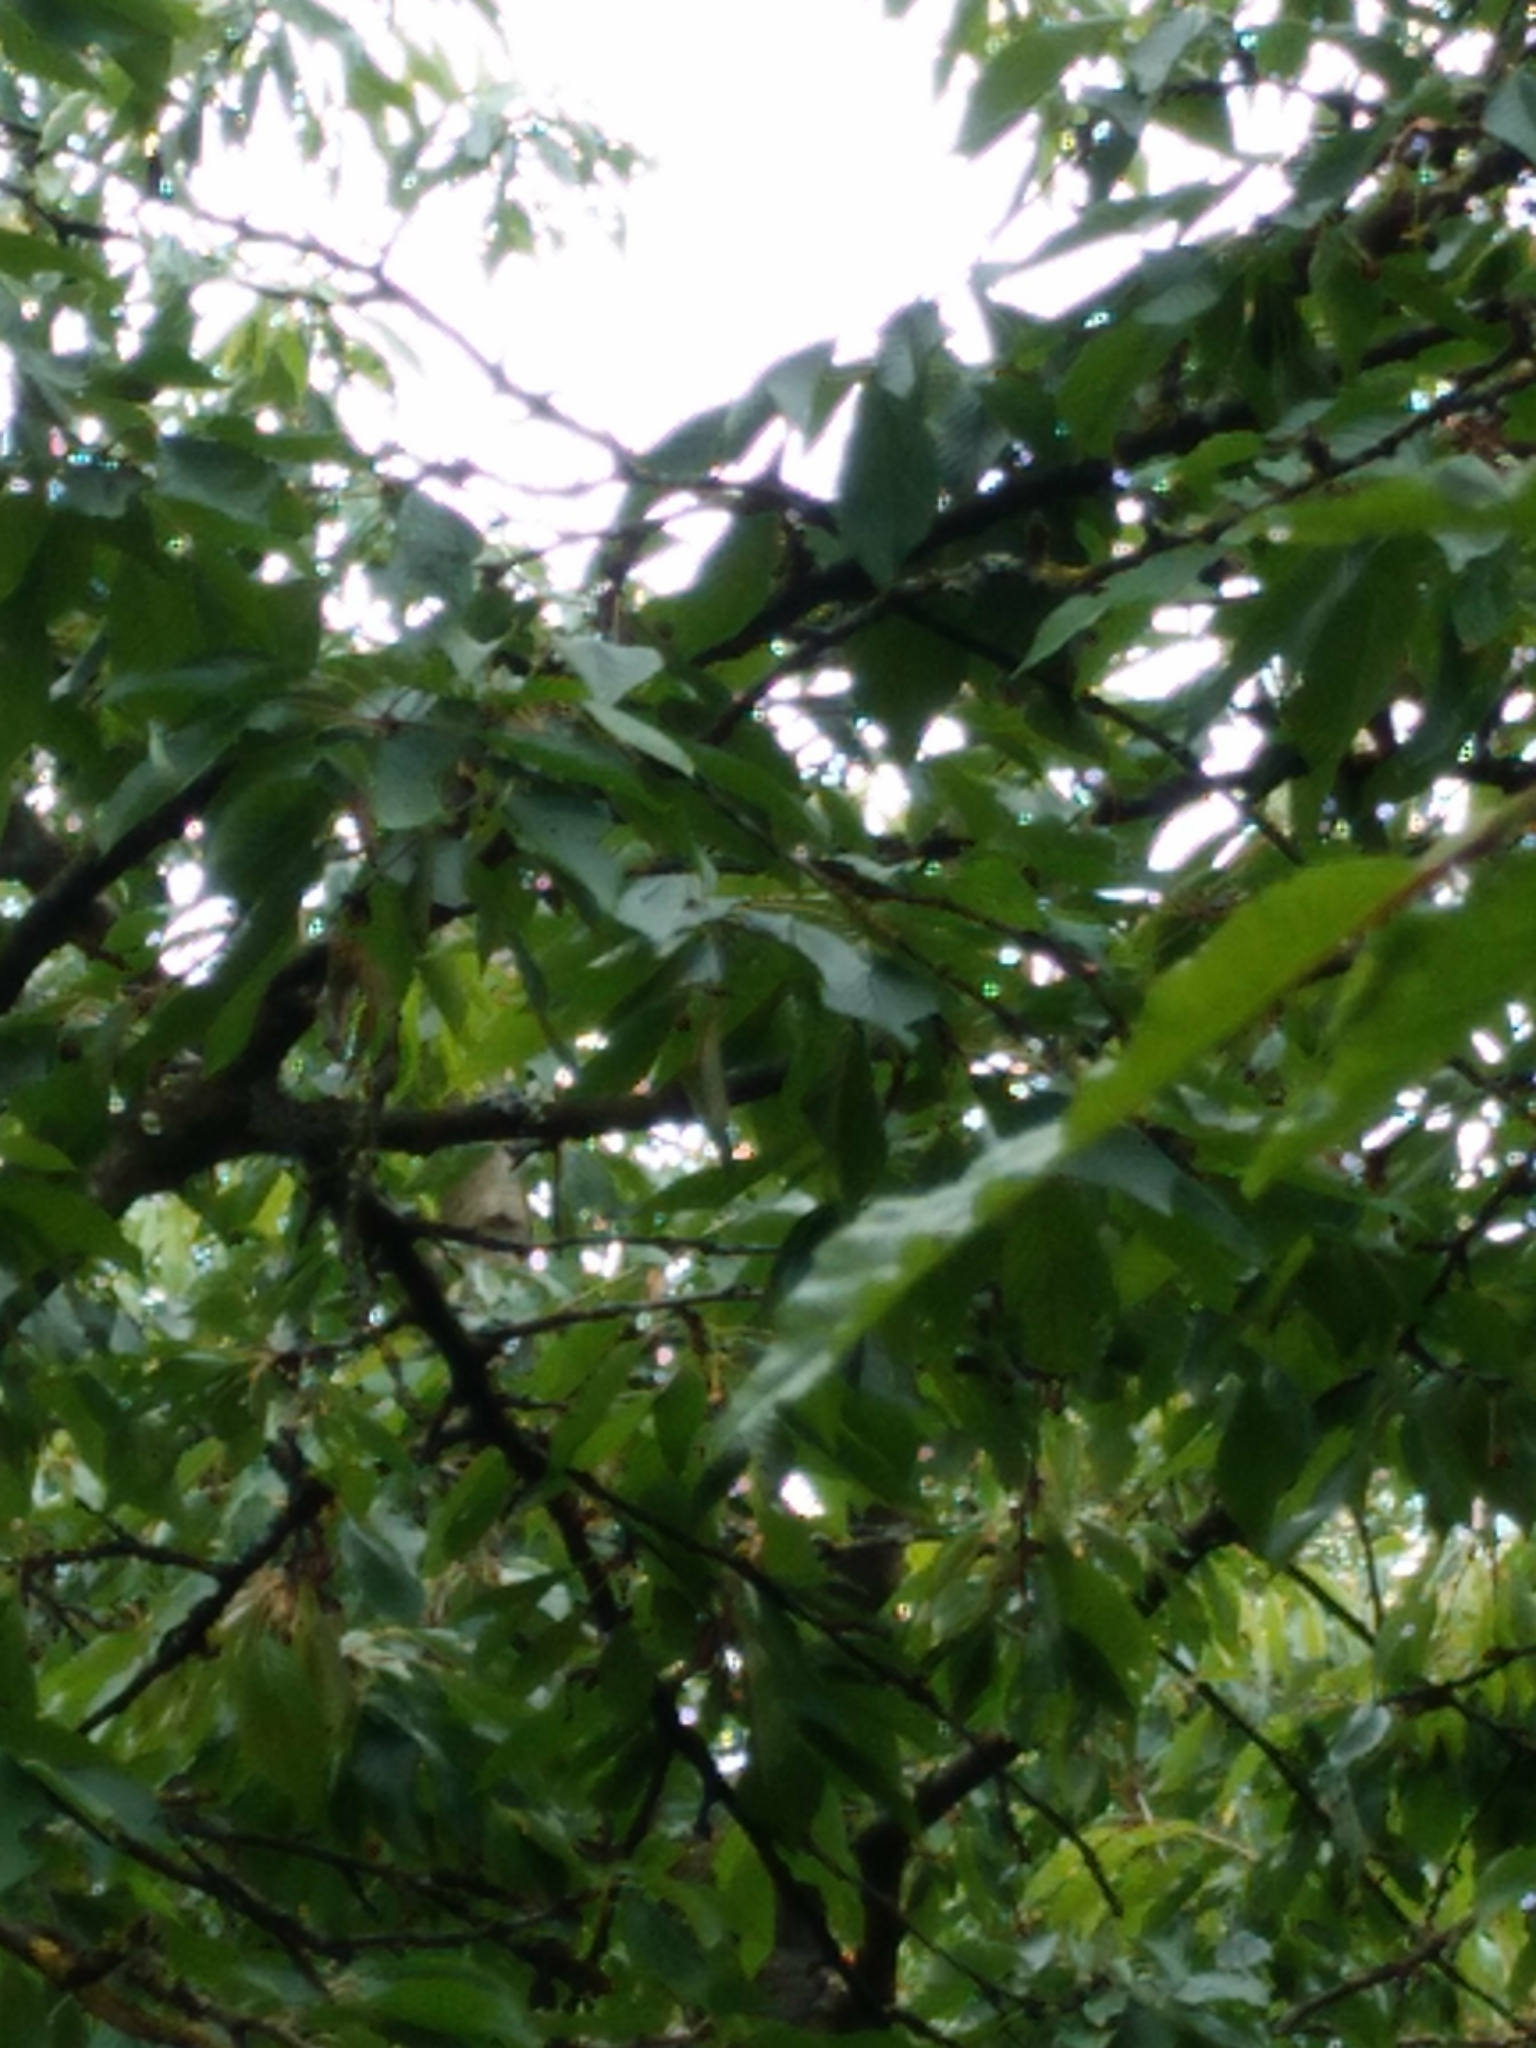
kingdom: Animalia
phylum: Chordata
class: Mammalia
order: Rodentia
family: Sciuridae
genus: Sciurus
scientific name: Sciurus vulgaris
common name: Eurasian red squirrel
